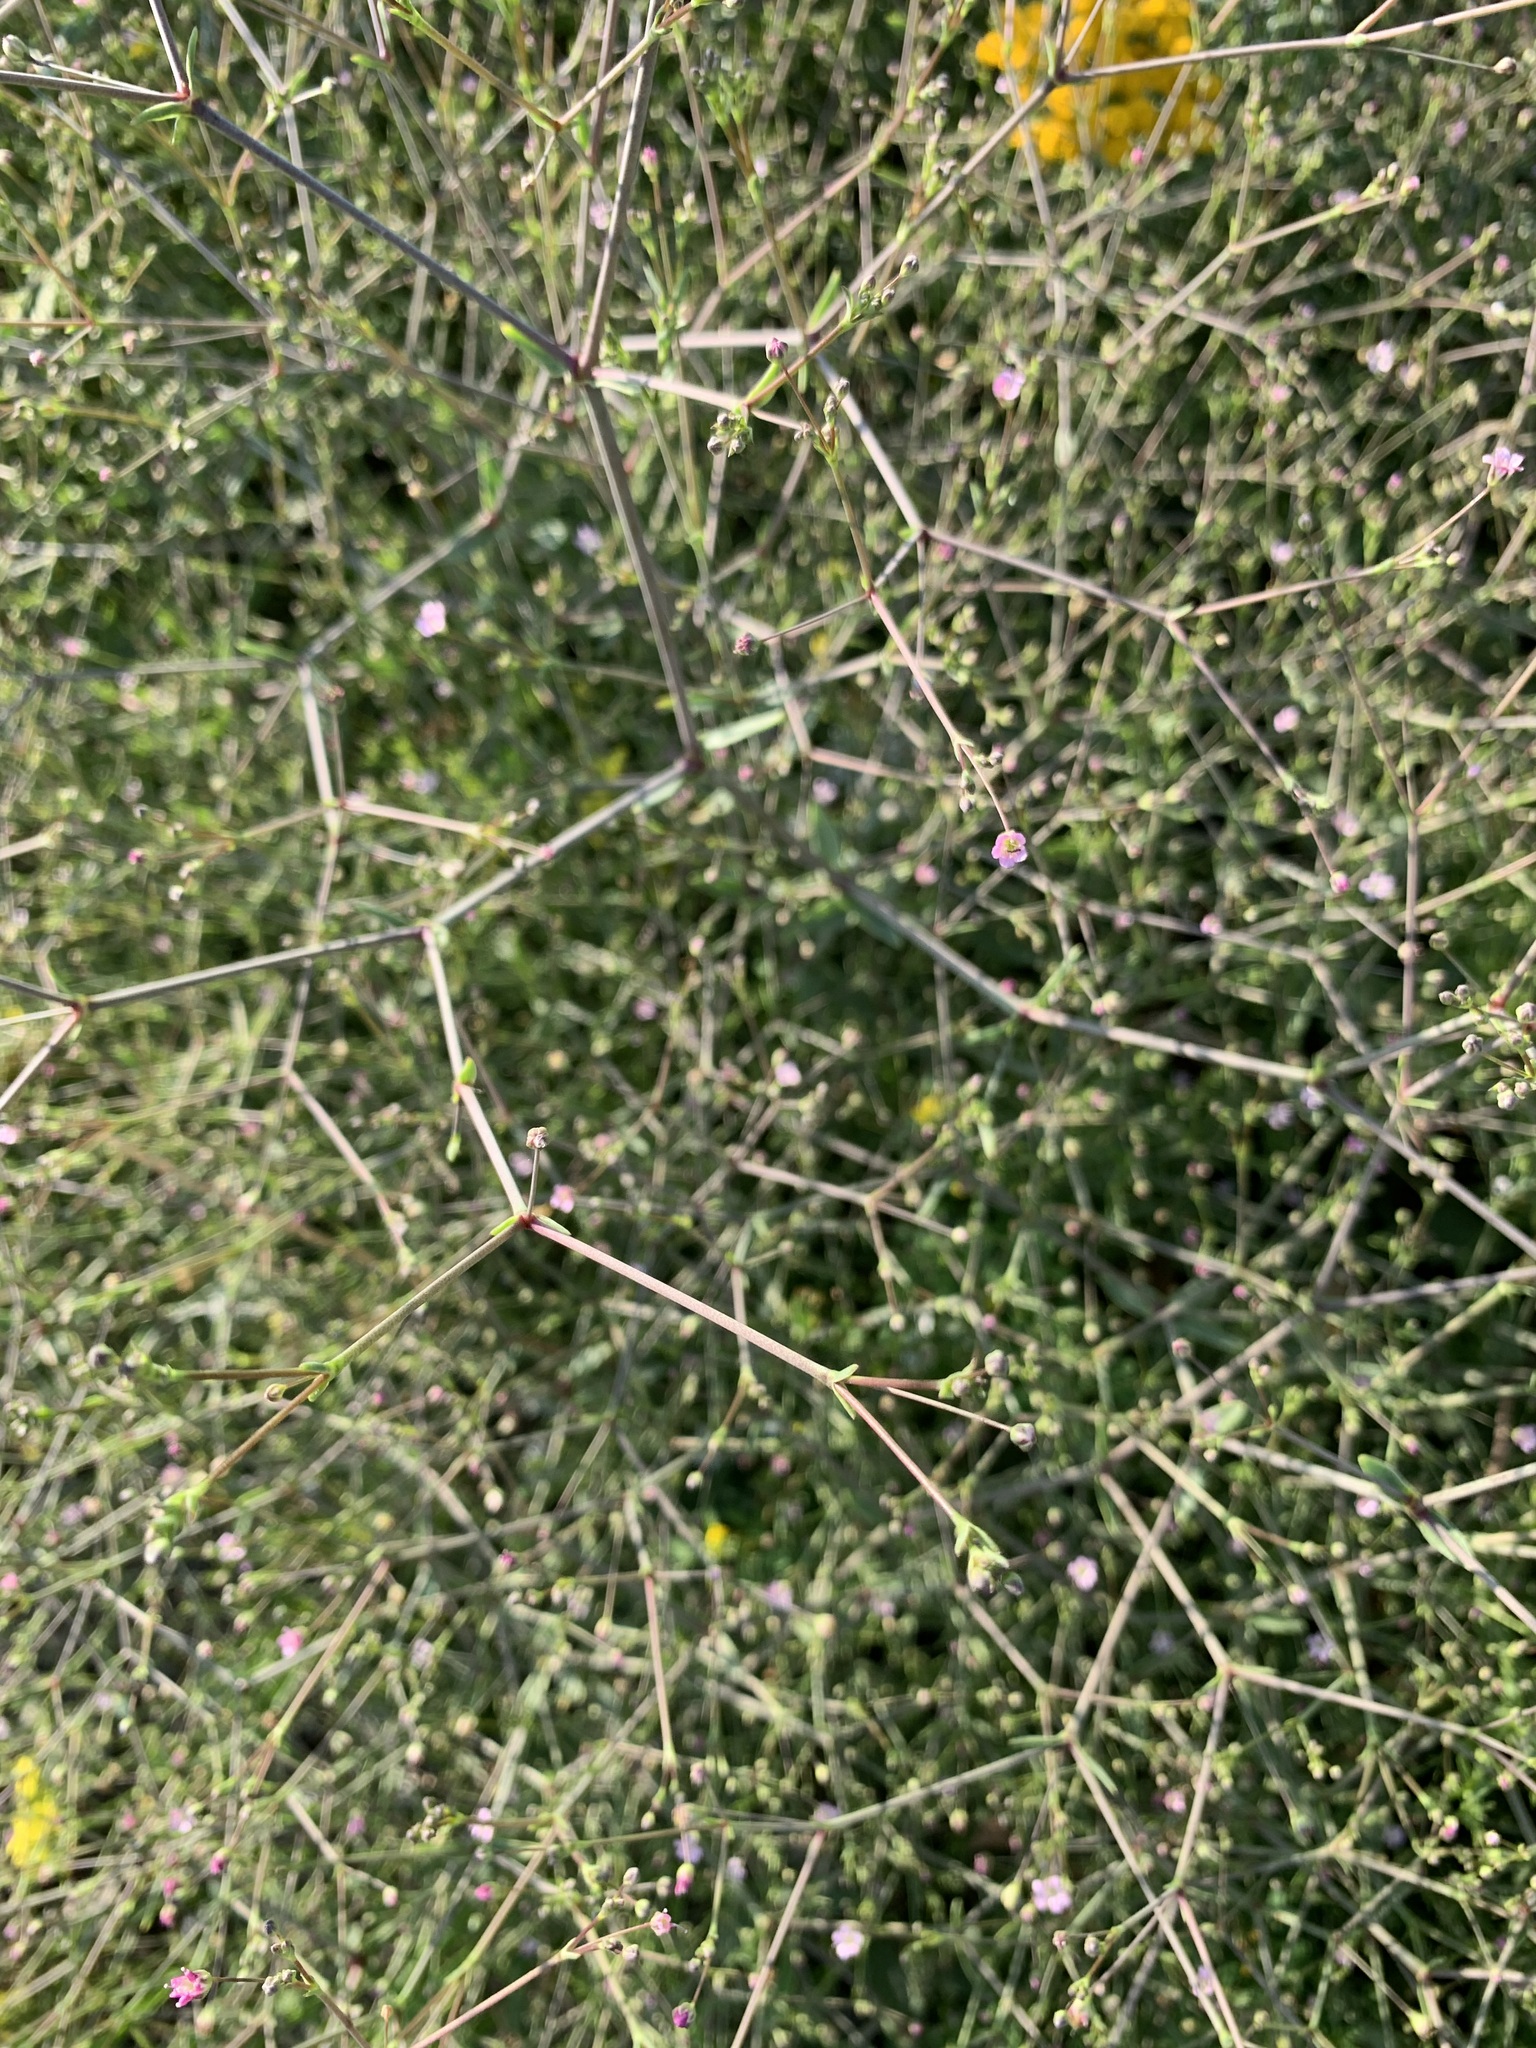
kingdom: Plantae
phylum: Tracheophyta
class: Magnoliopsida
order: Caryophyllales
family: Caryophyllaceae
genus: Gypsophila
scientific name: Gypsophila perfoliata
